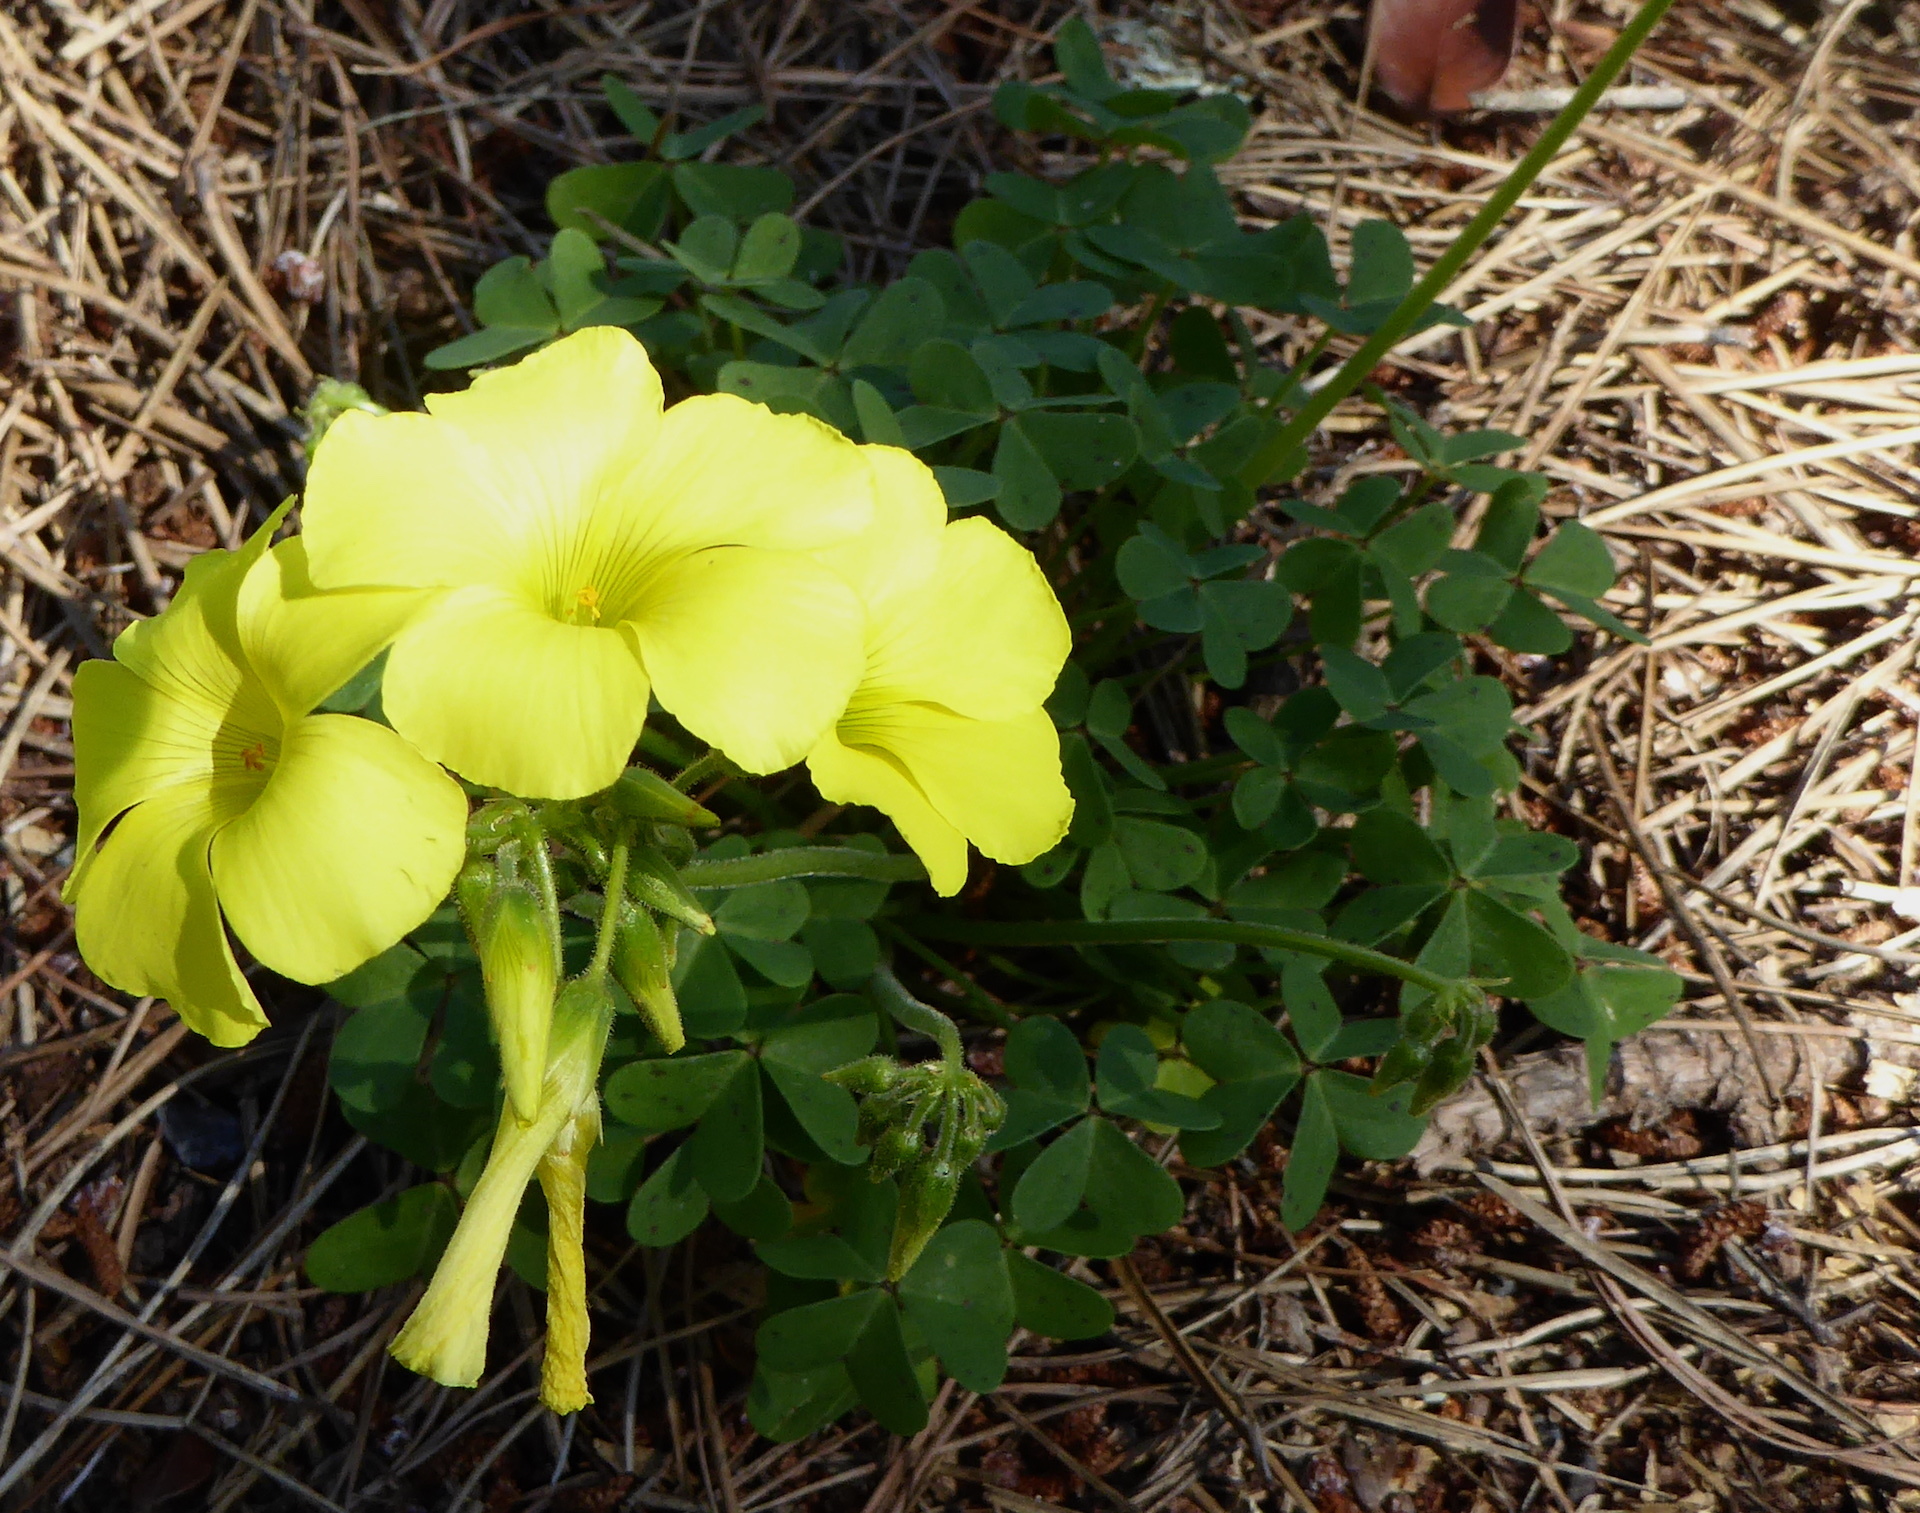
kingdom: Plantae
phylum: Tracheophyta
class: Magnoliopsida
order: Oxalidales
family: Oxalidaceae
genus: Oxalis
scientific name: Oxalis pes-caprae
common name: Bermuda-buttercup
